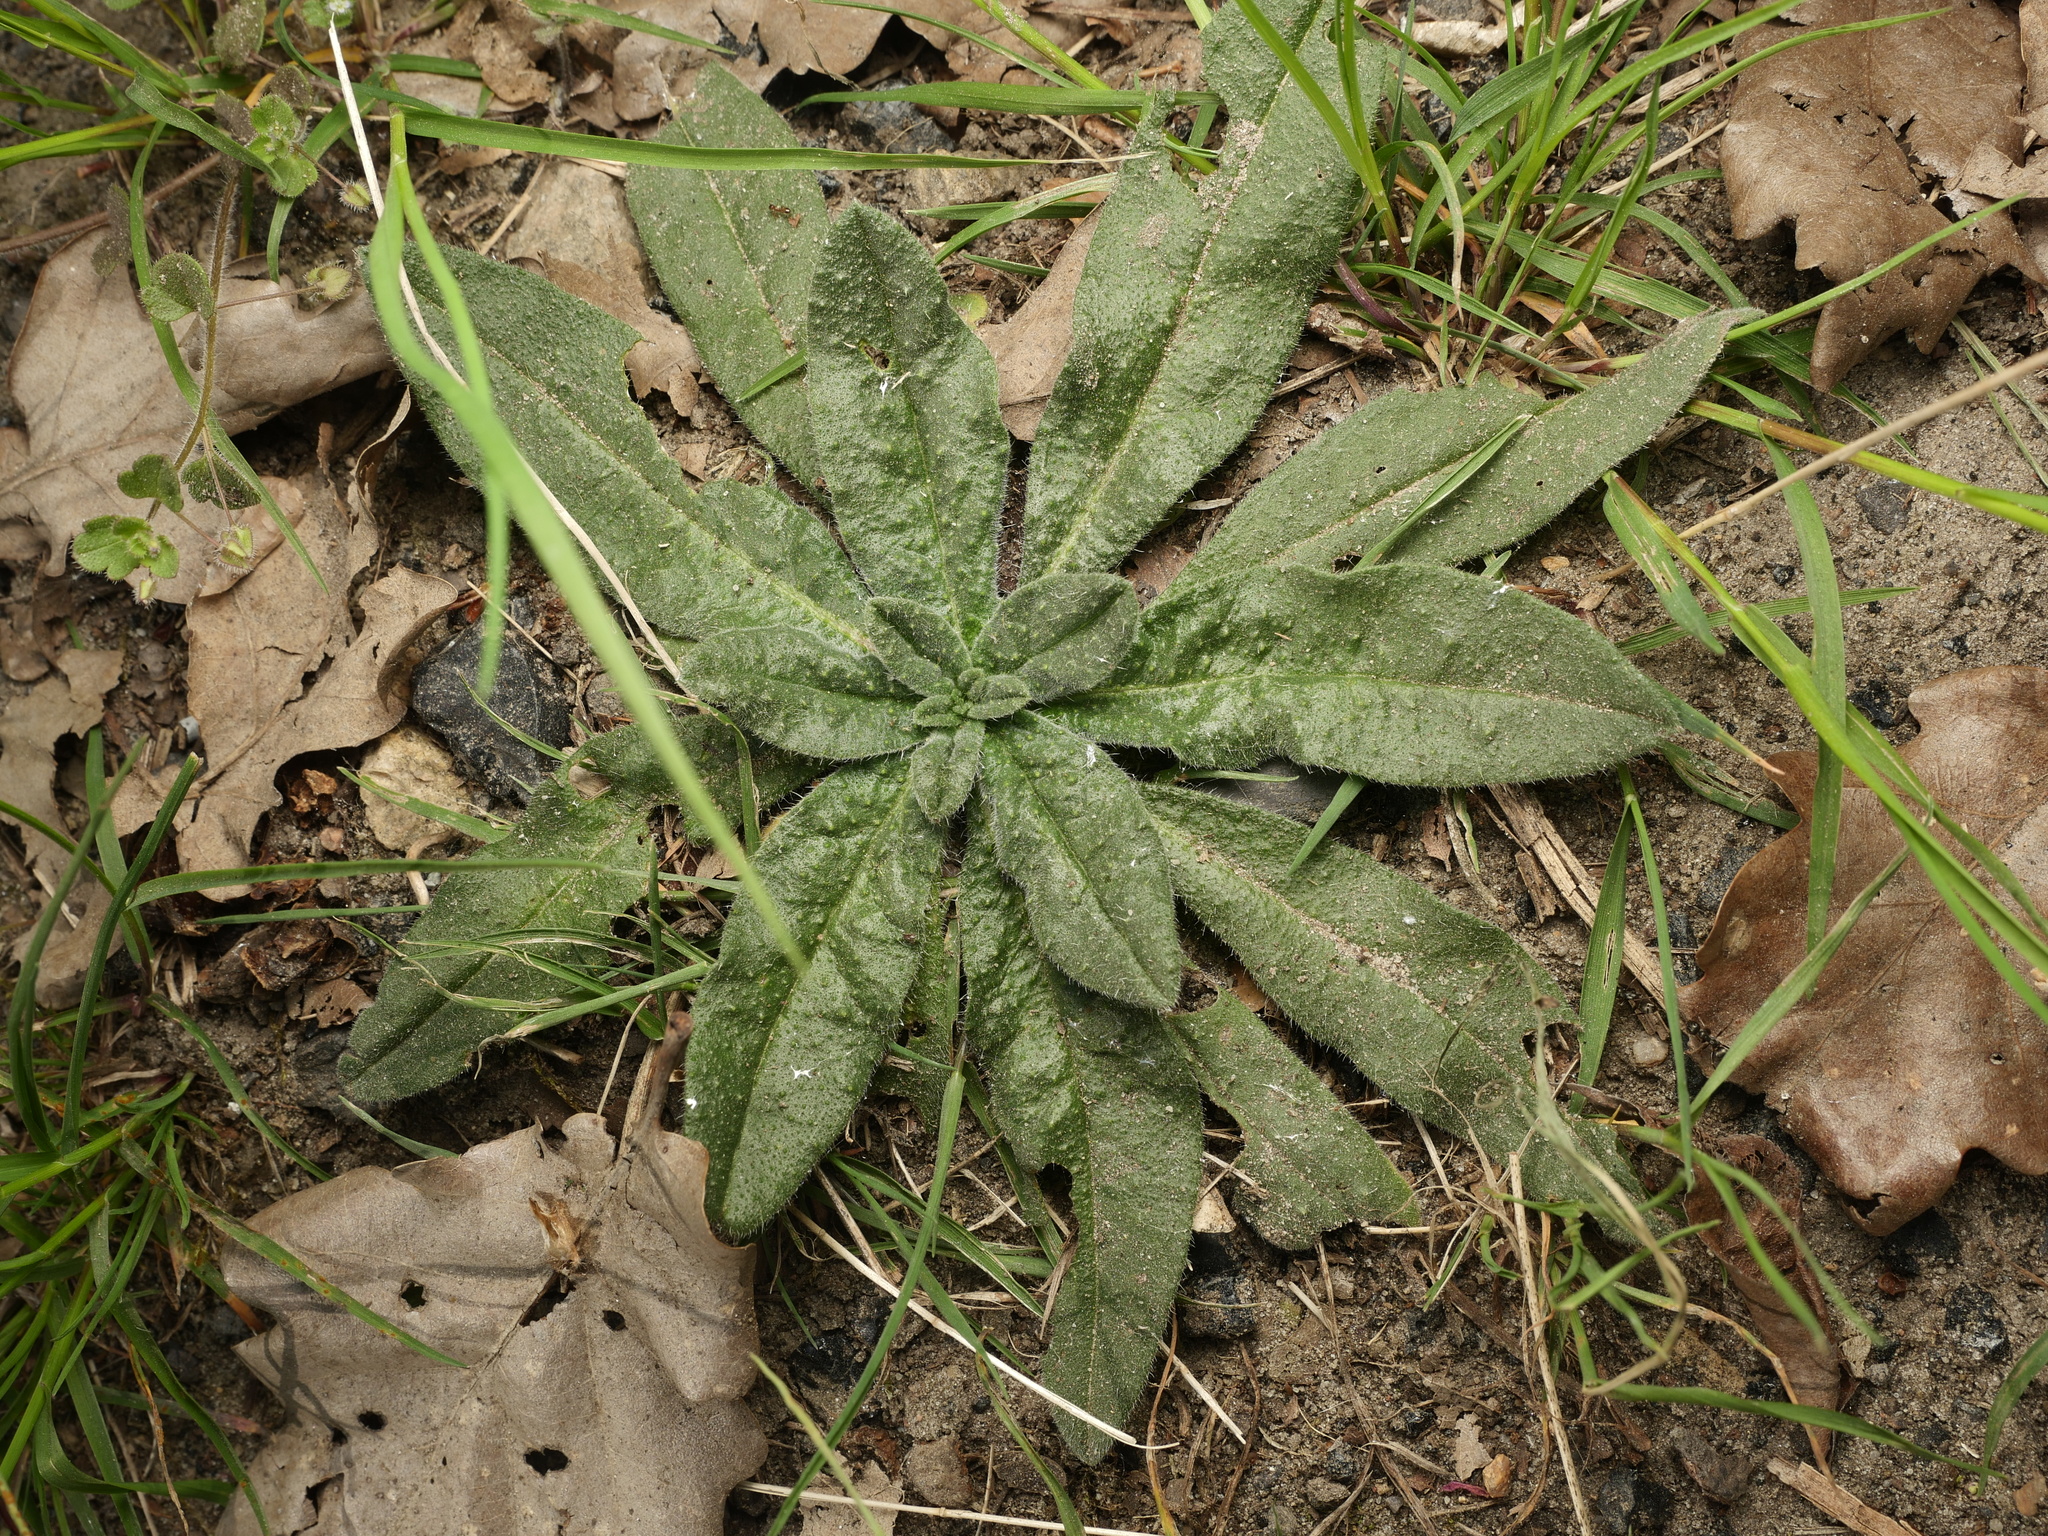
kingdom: Plantae
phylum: Tracheophyta
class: Magnoliopsida
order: Boraginales
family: Boraginaceae
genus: Echium
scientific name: Echium vulgare
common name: Common viper's bugloss
